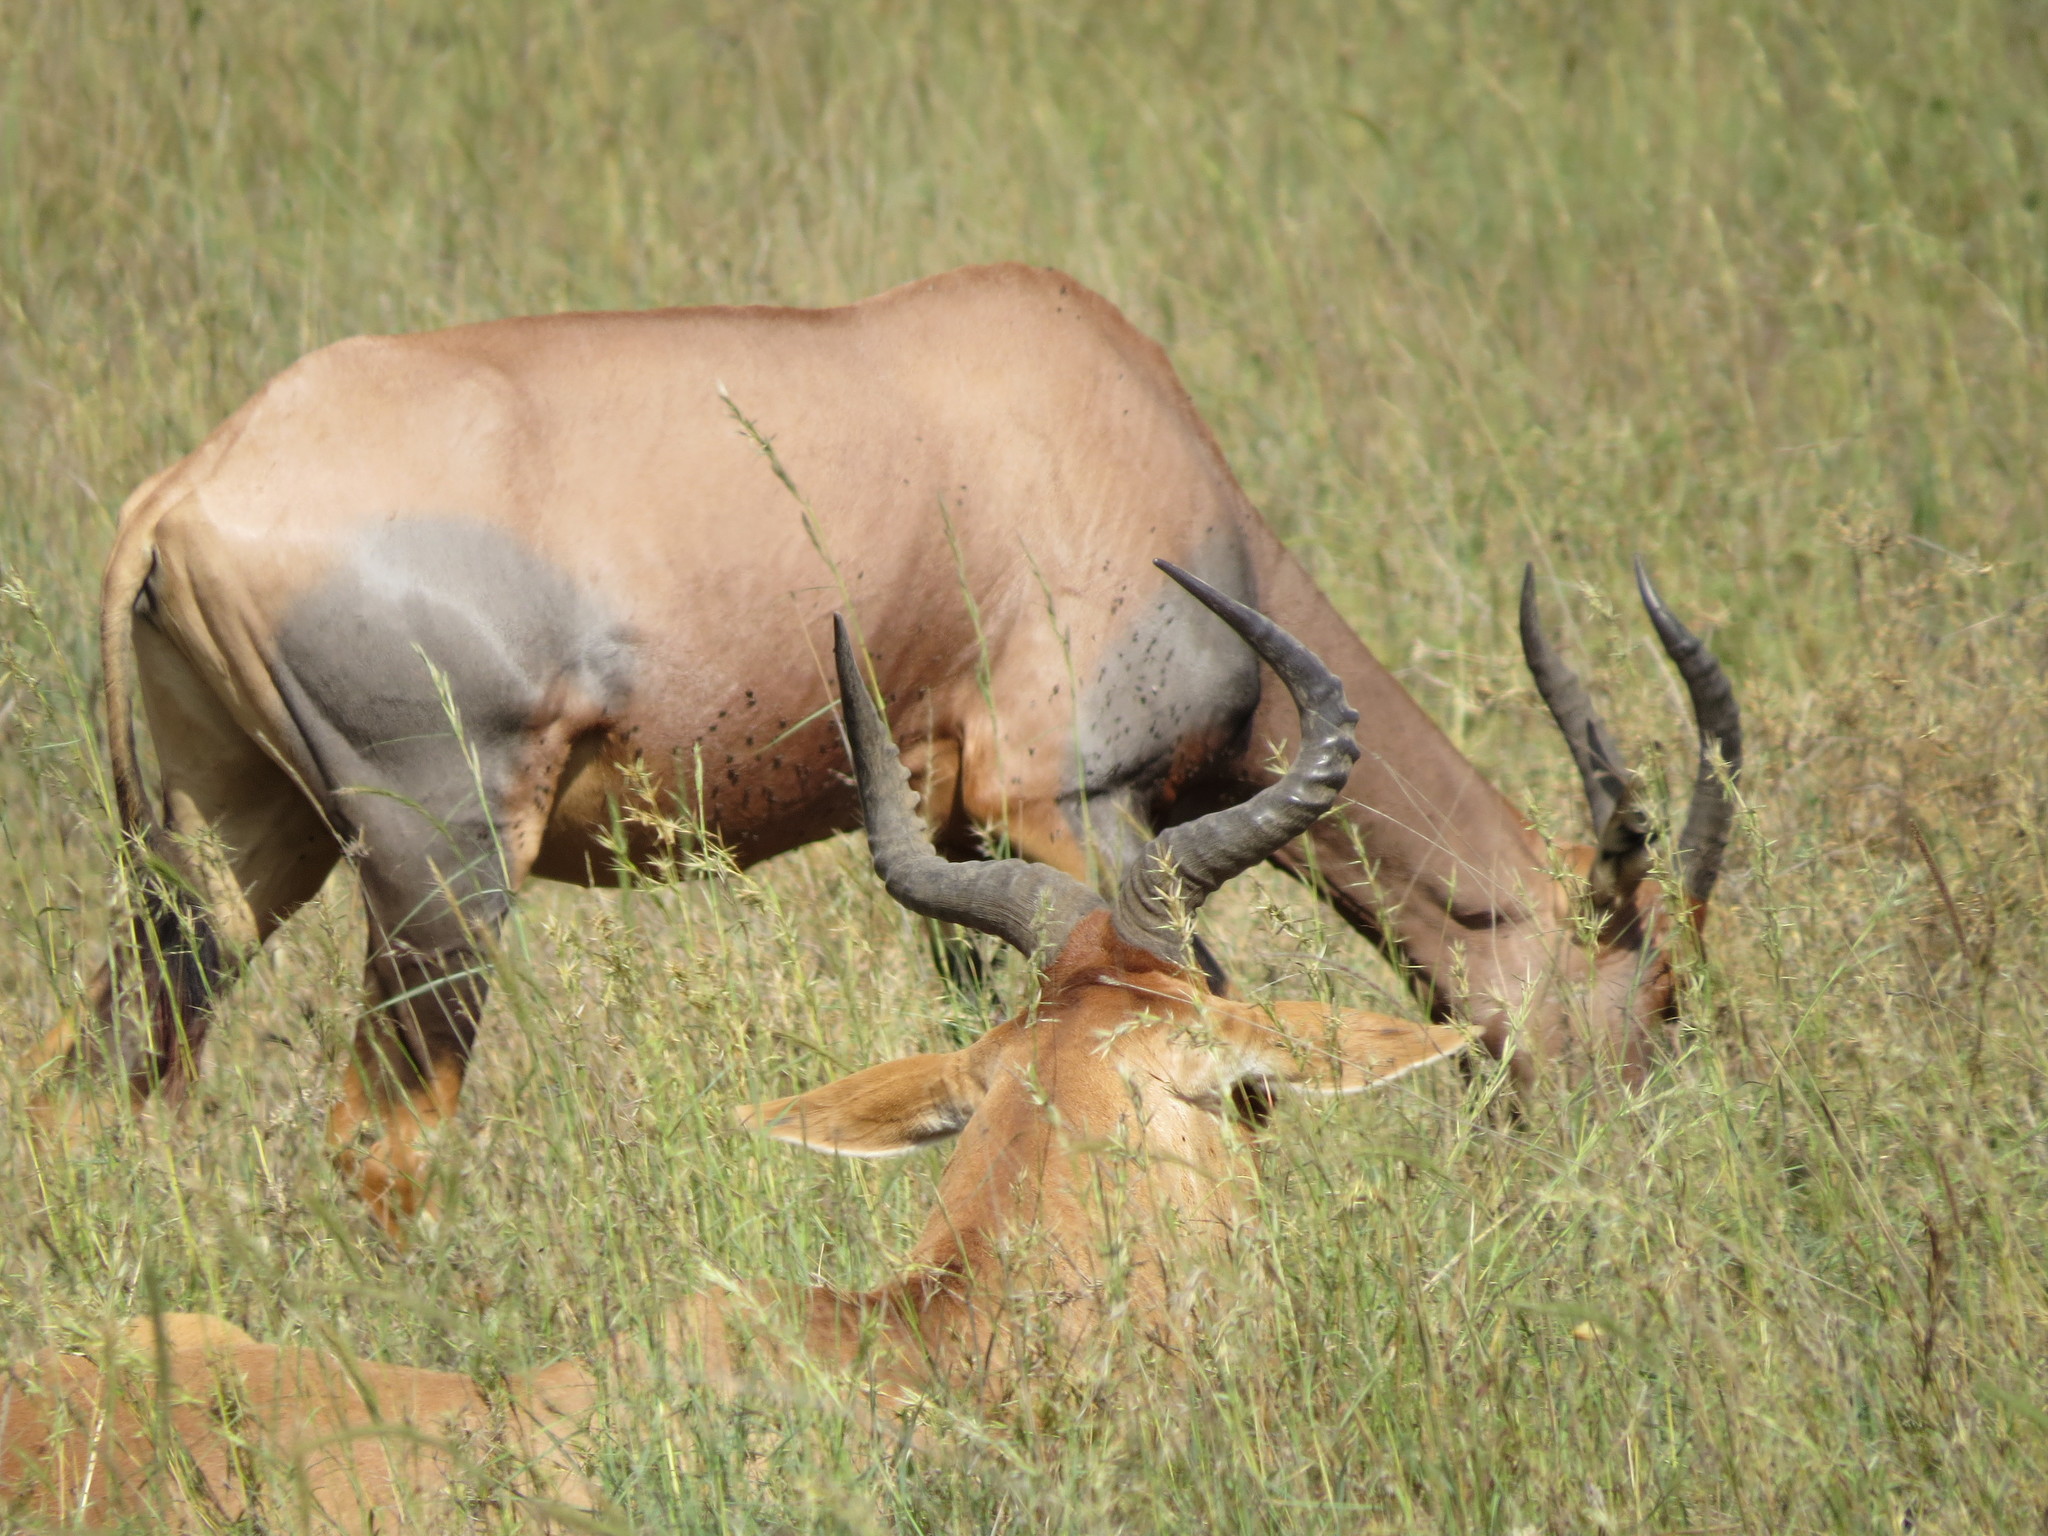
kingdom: Animalia
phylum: Chordata
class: Mammalia
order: Artiodactyla
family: Bovidae
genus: Damaliscus
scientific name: Damaliscus korrigum
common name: Topi
